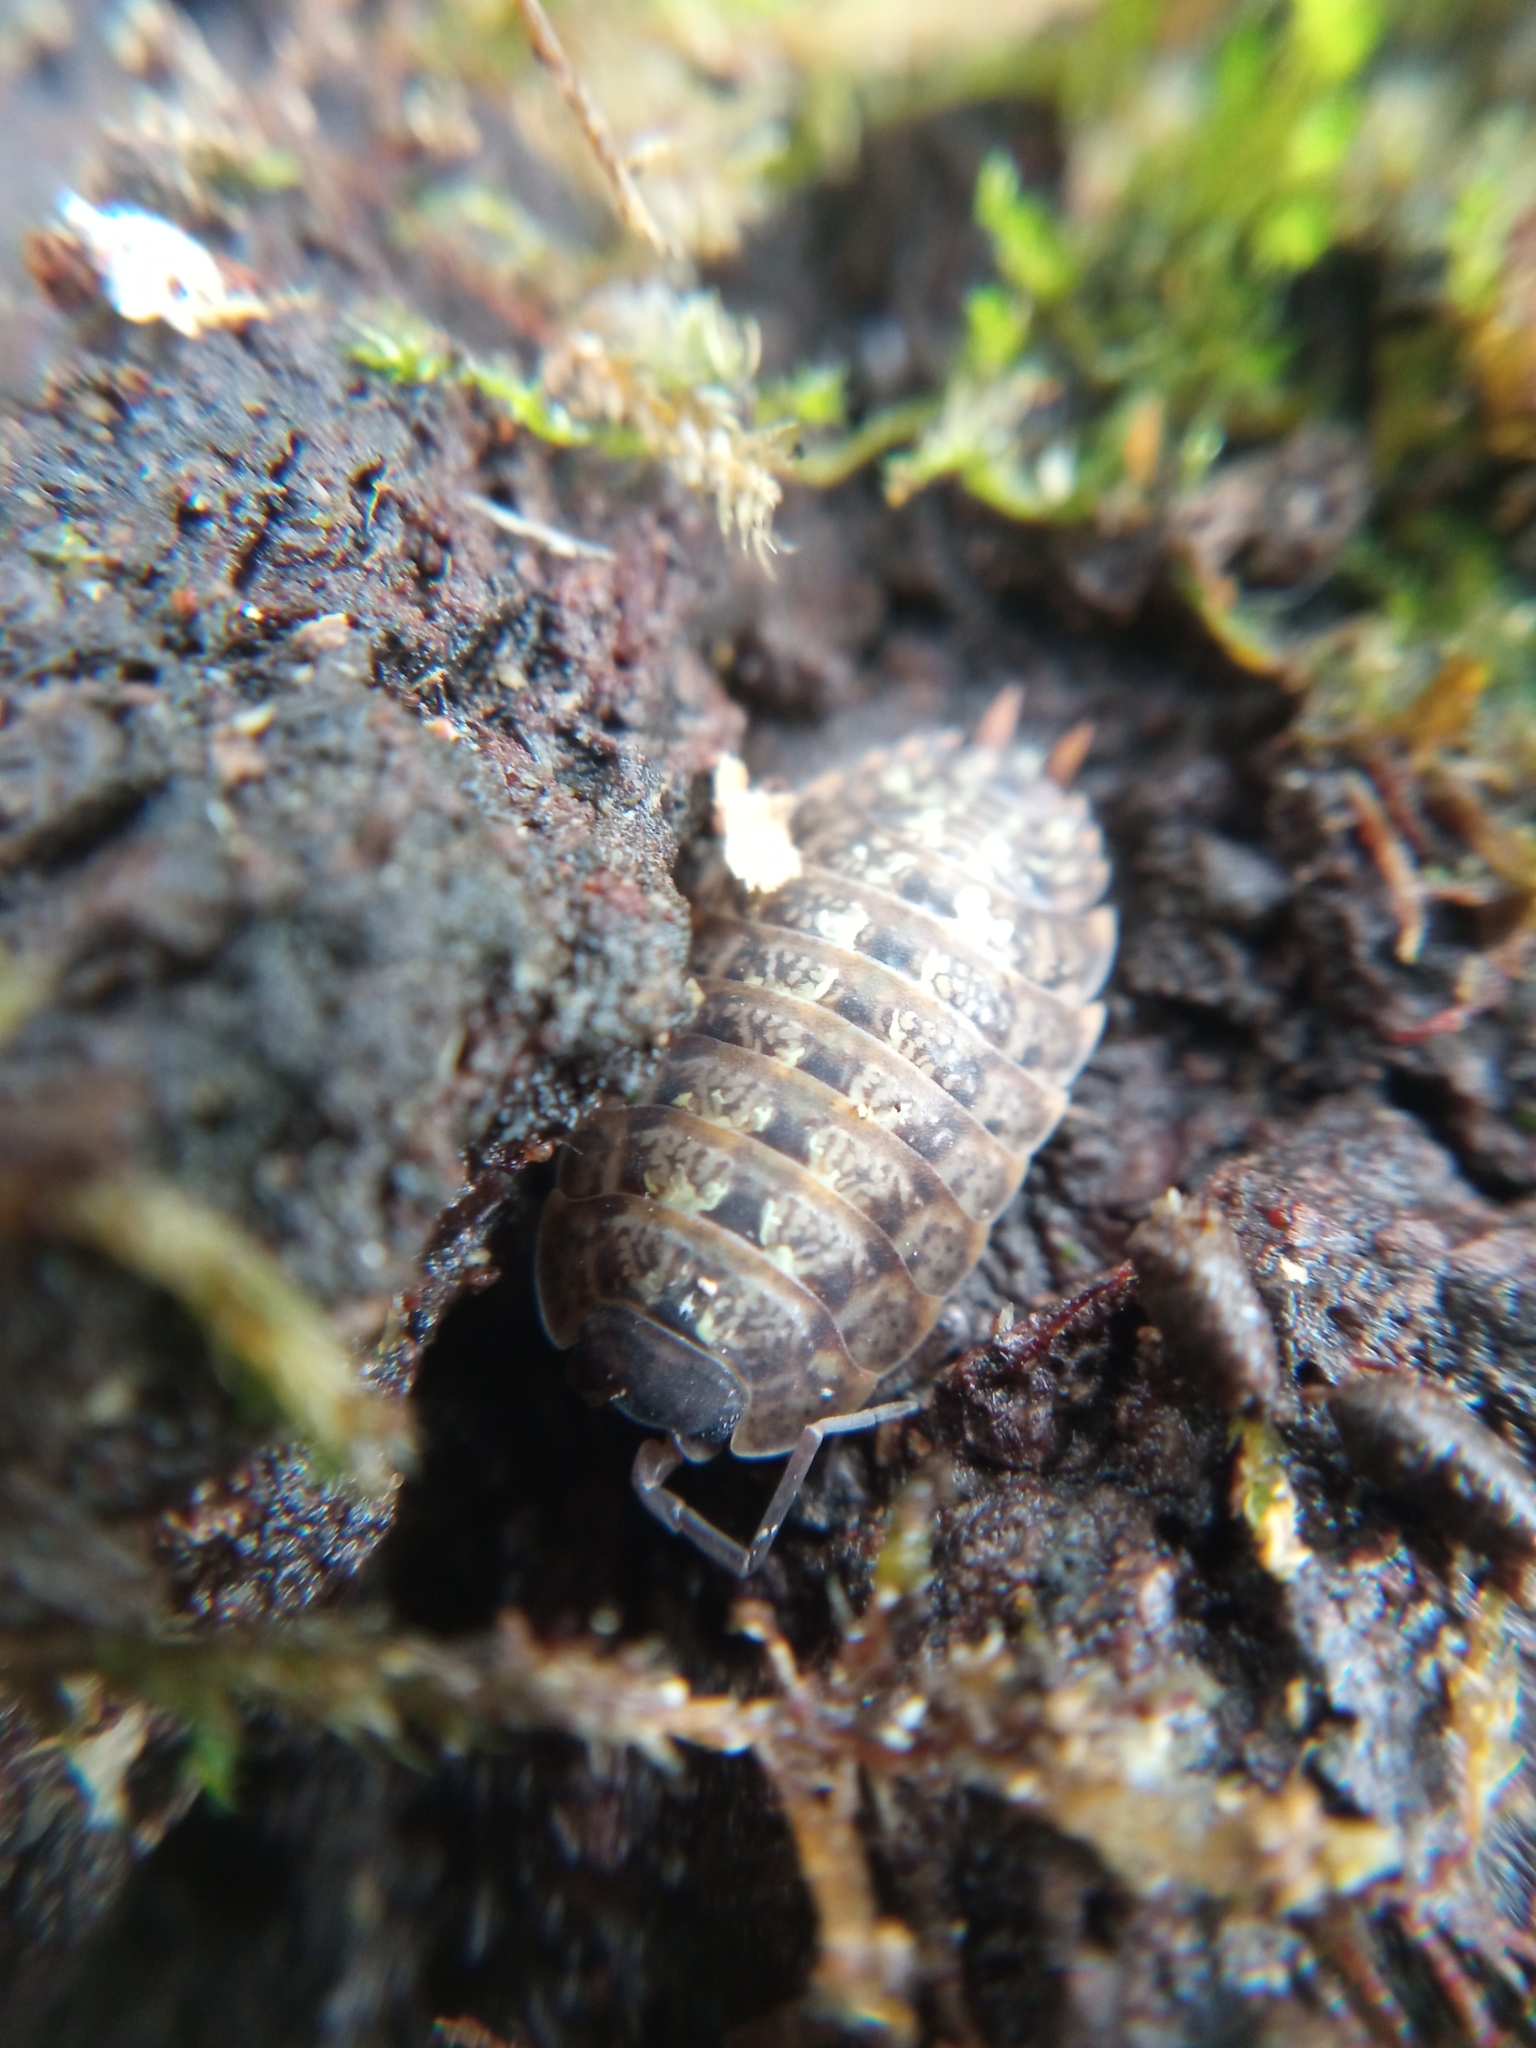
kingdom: Animalia
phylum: Arthropoda
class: Malacostraca
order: Isopoda
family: Porcellionidae
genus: Porcellio
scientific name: Porcellio monticola
